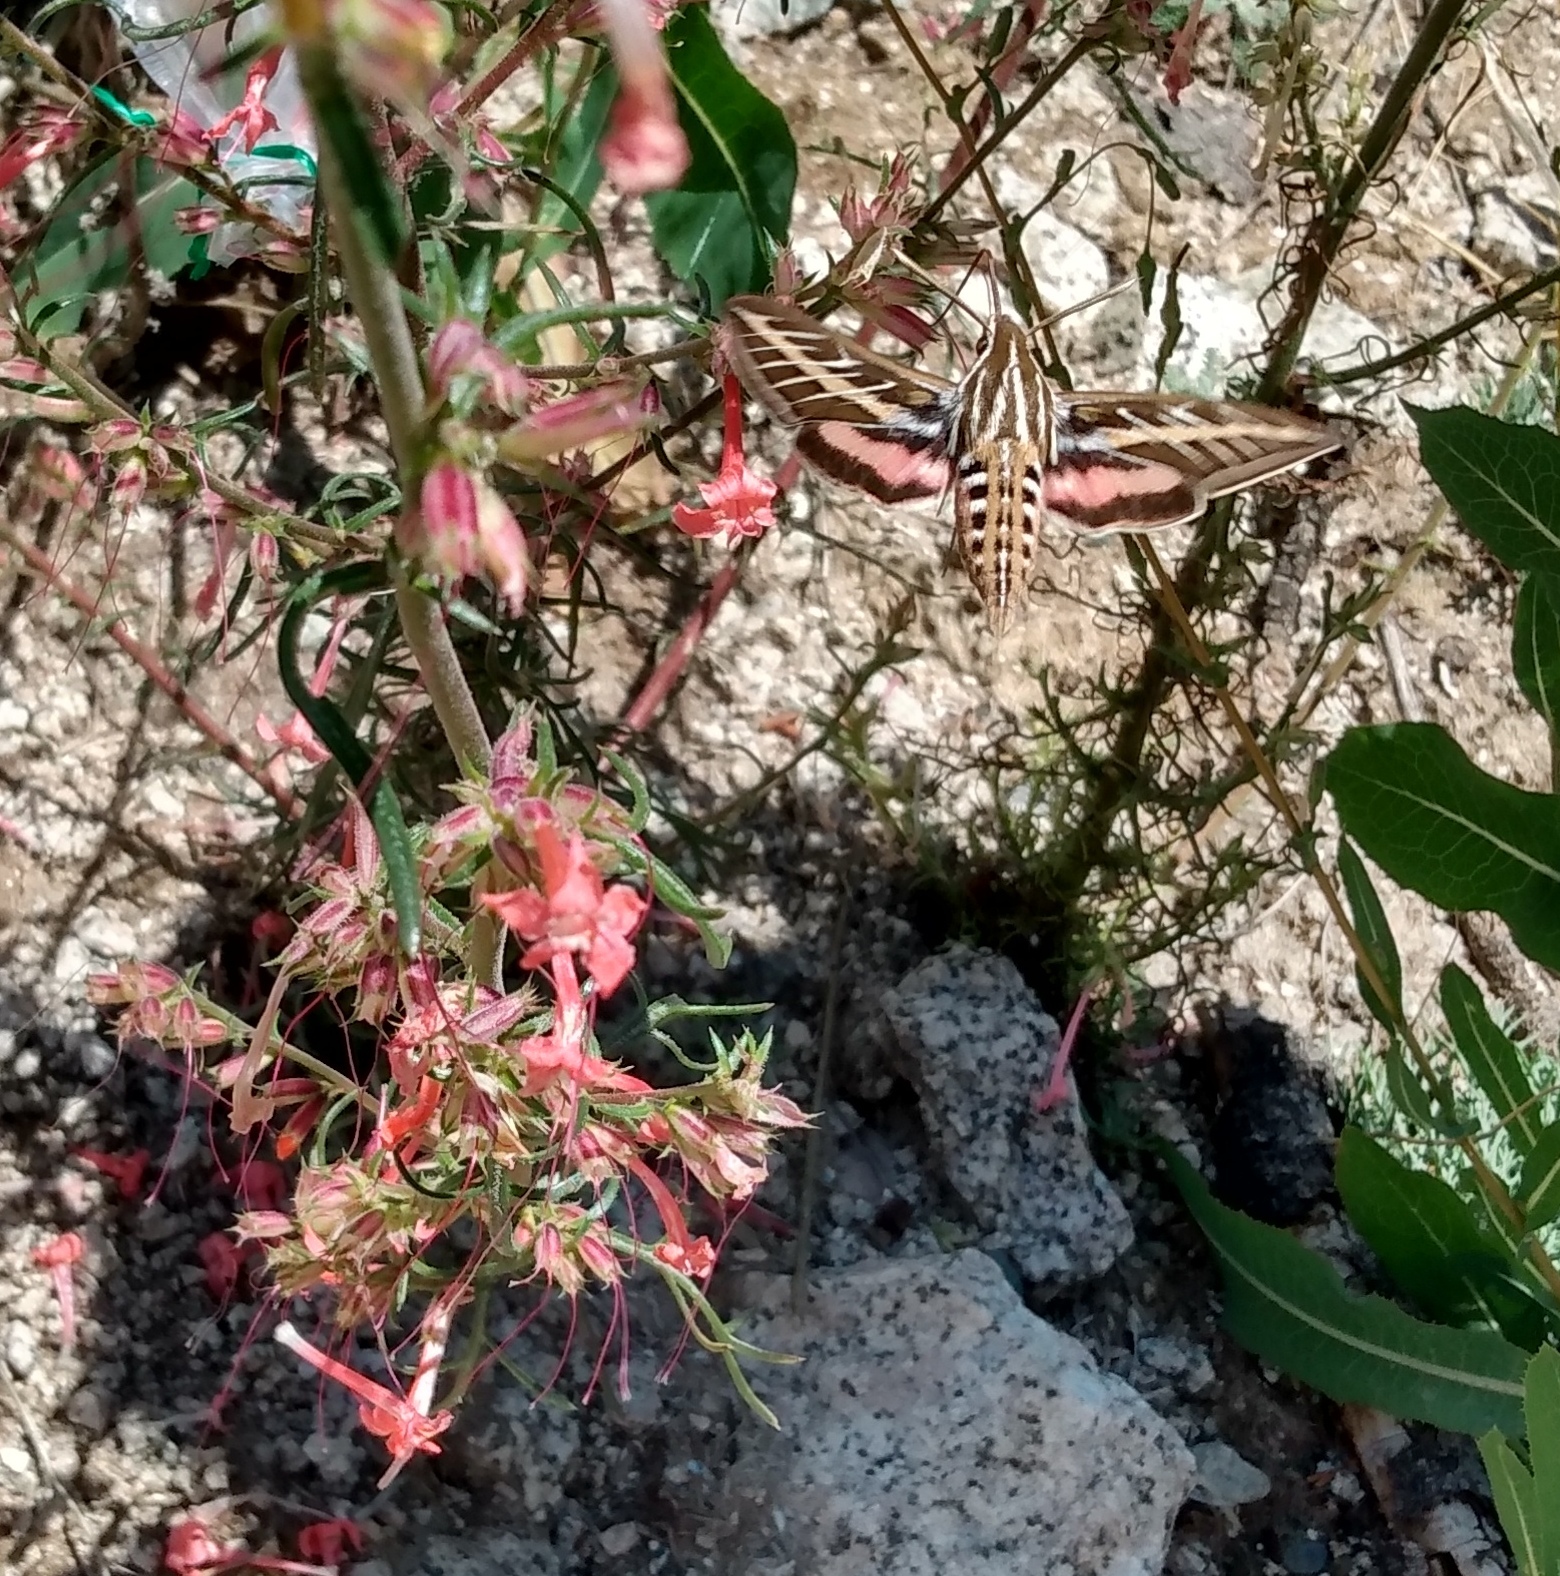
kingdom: Animalia
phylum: Arthropoda
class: Insecta
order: Lepidoptera
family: Sphingidae
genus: Hyles
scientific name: Hyles lineata
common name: White-lined sphinx
